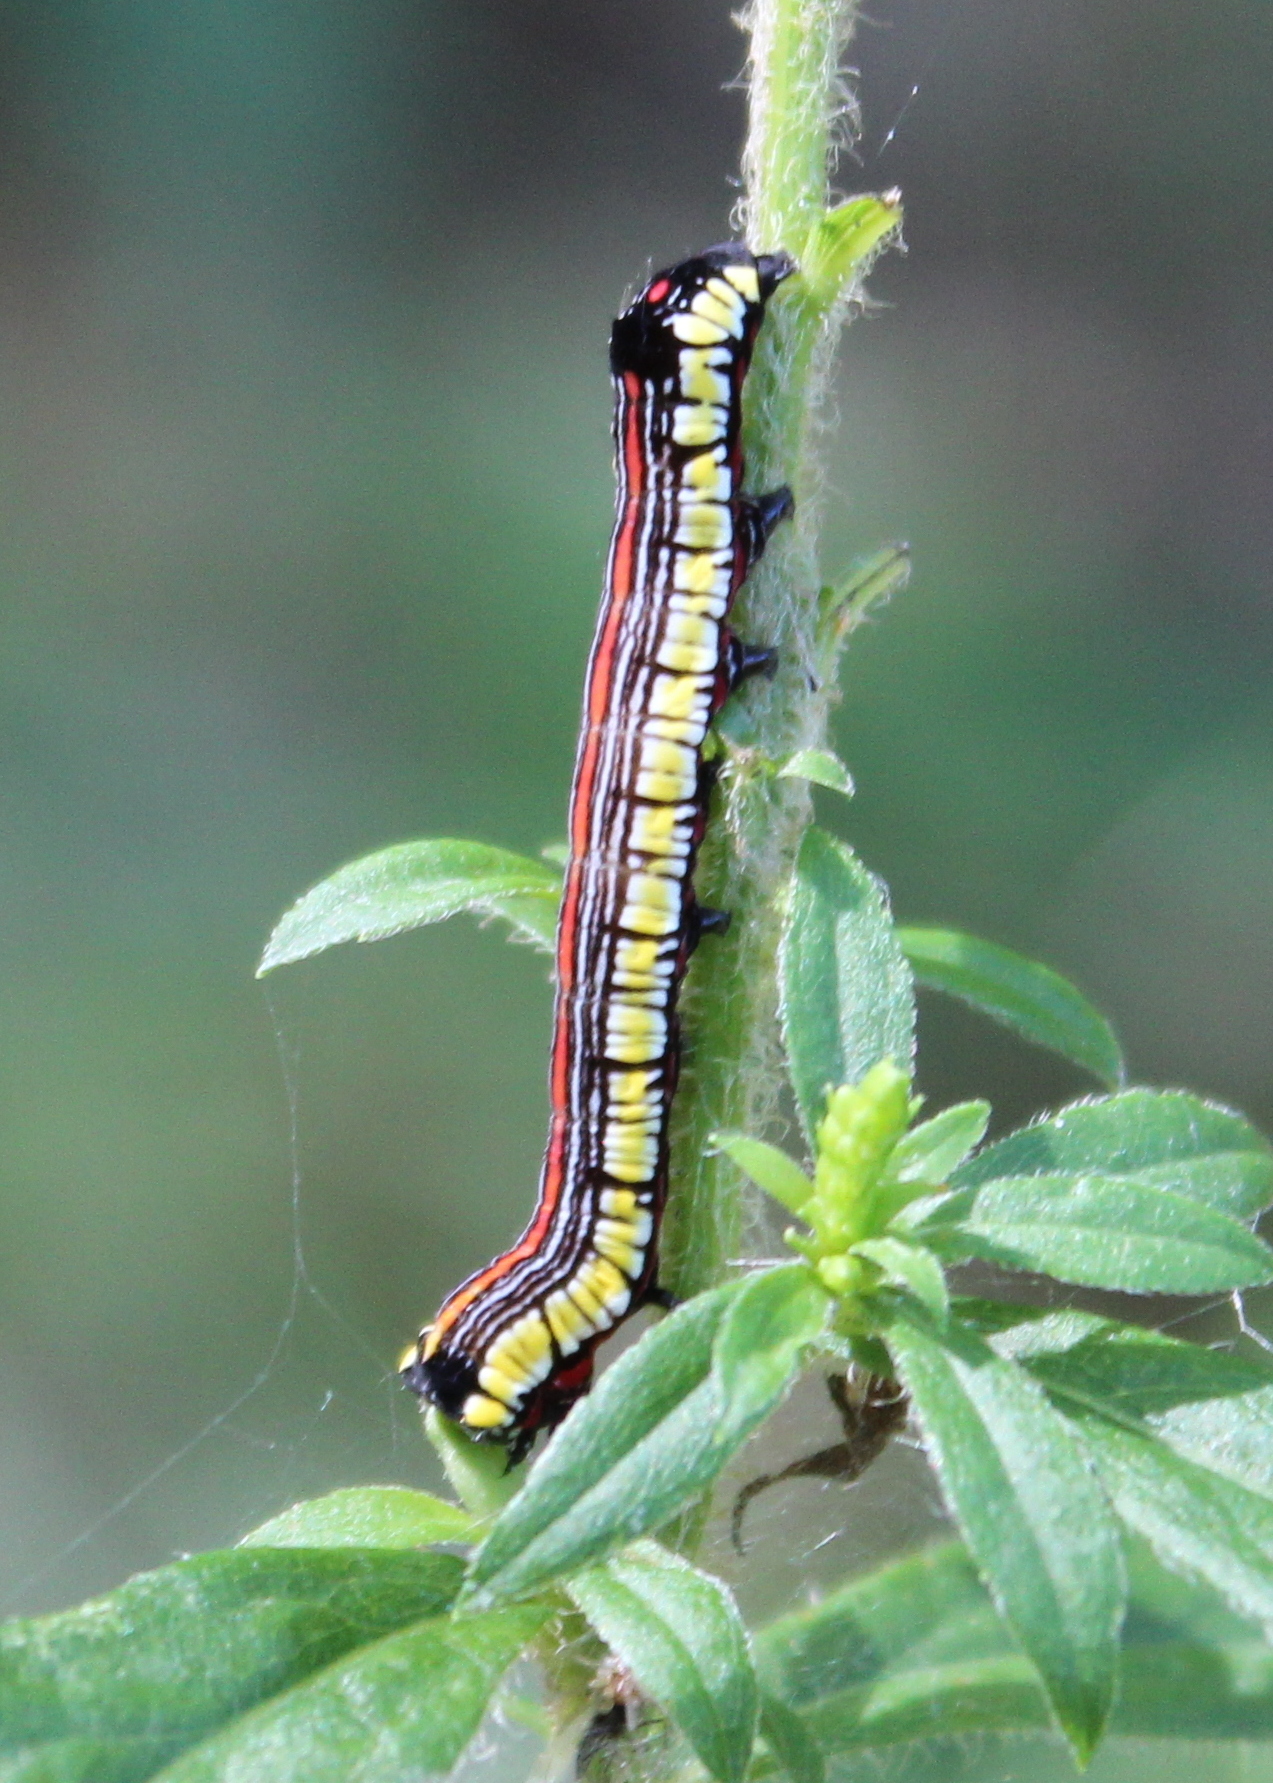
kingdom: Animalia
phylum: Arthropoda
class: Insecta
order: Lepidoptera
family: Noctuidae
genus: Cucullia
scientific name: Cucullia convexipennis
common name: Brown-hooded owlet
